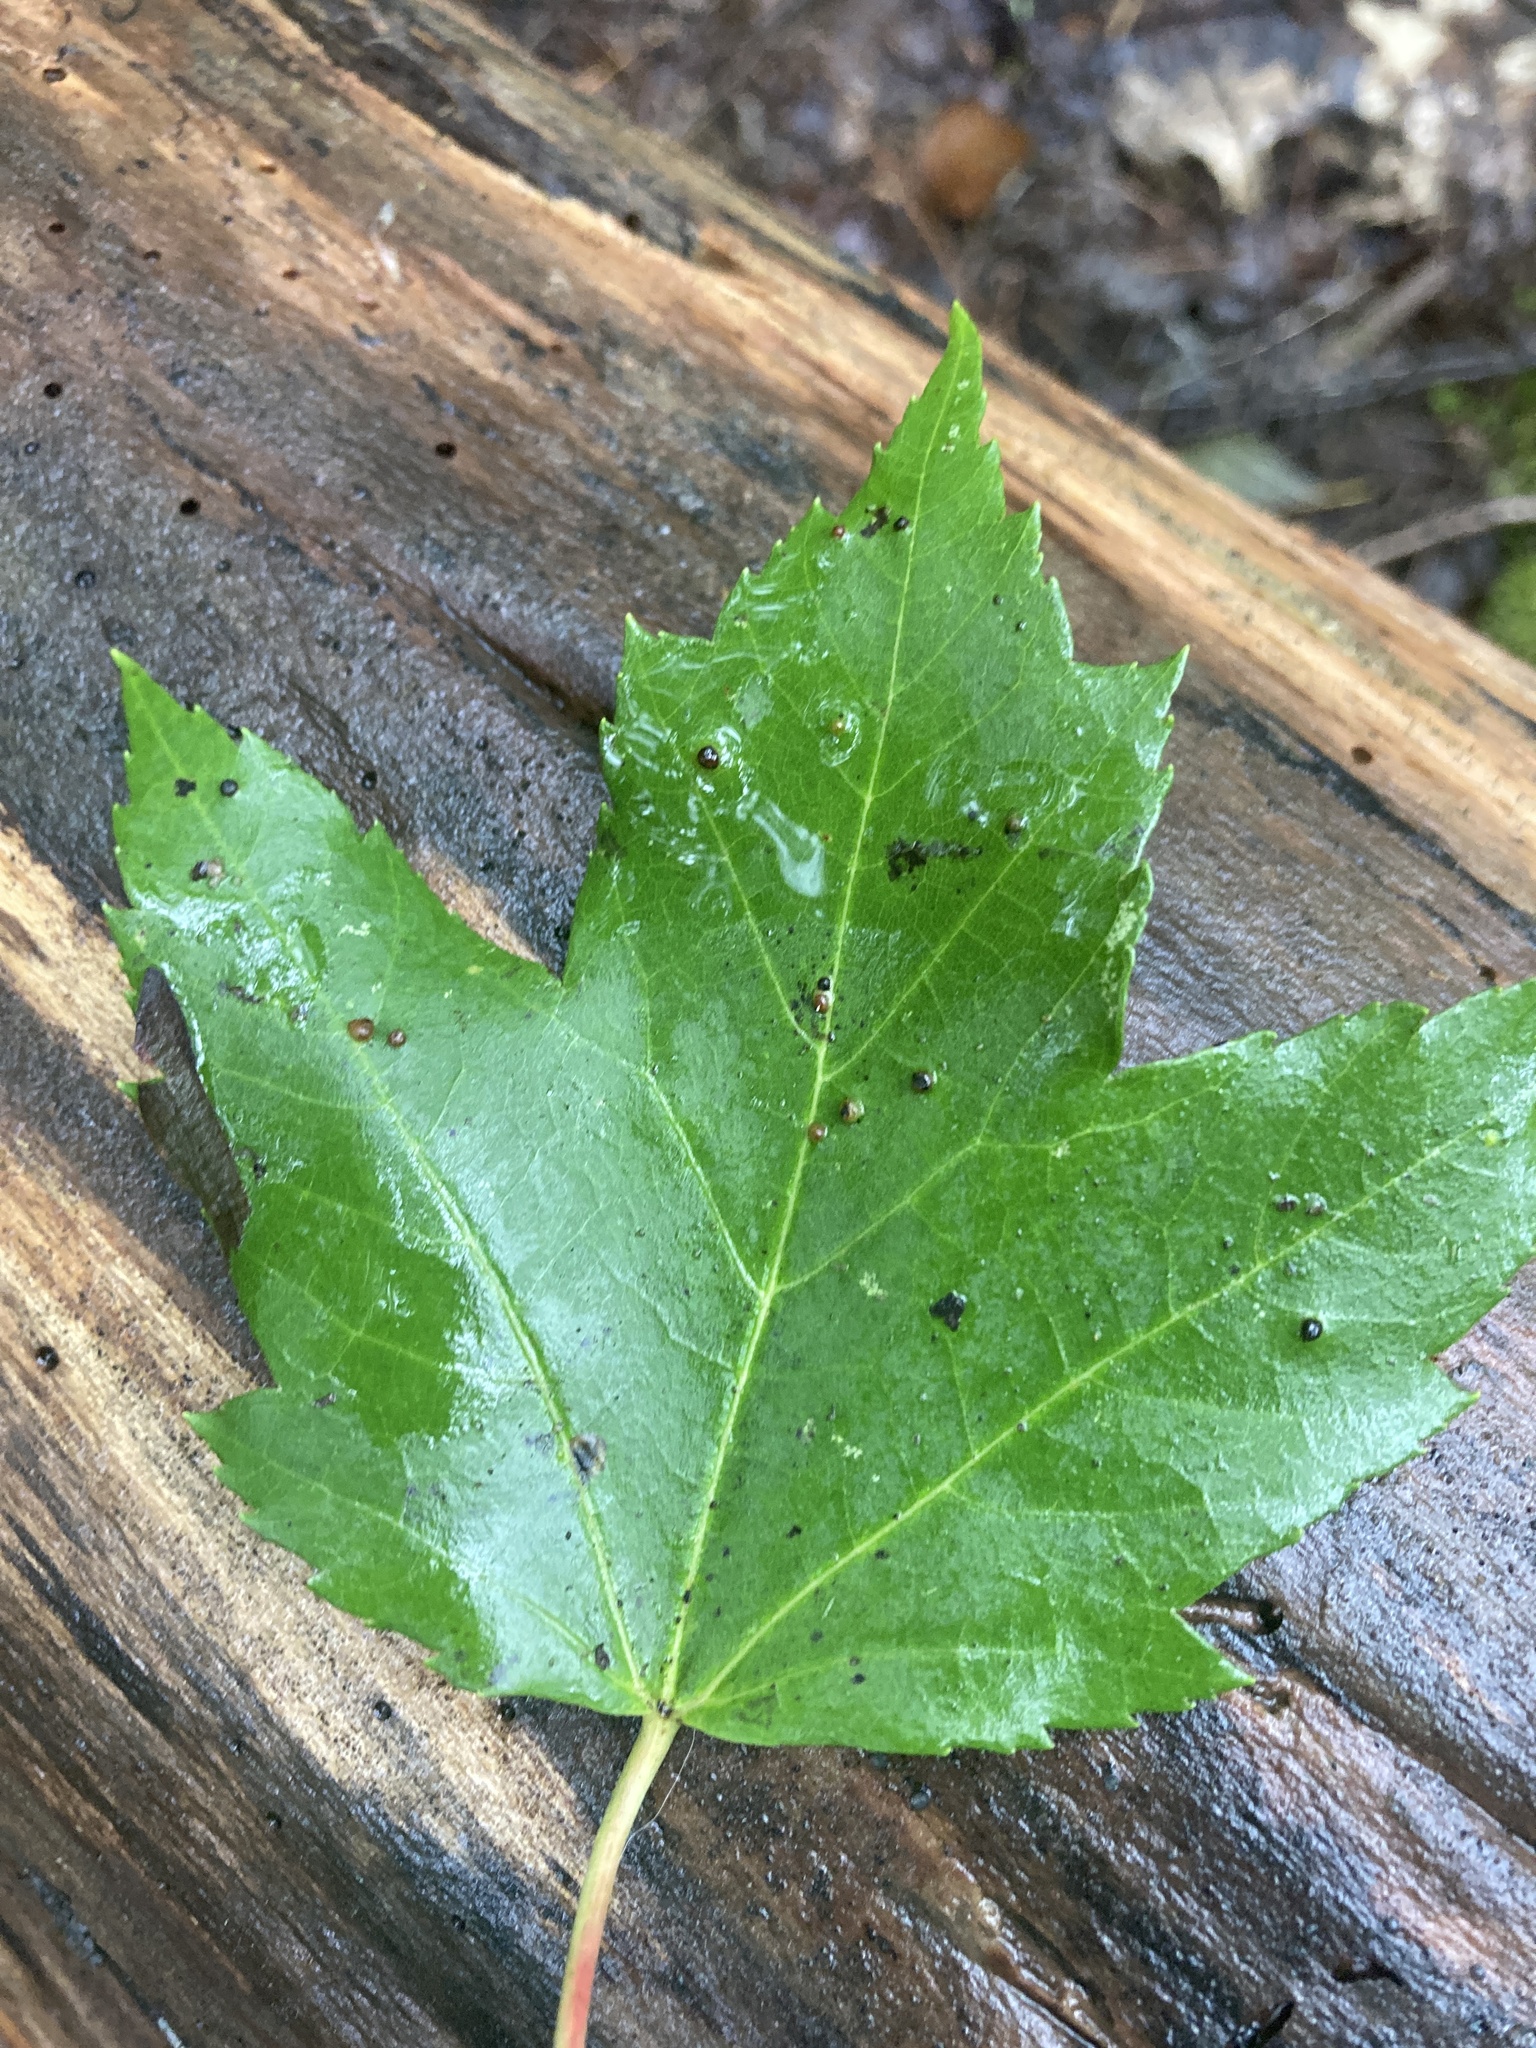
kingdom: Plantae
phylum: Tracheophyta
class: Magnoliopsida
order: Sapindales
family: Sapindaceae
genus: Acer
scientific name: Acer rubrum
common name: Red maple
